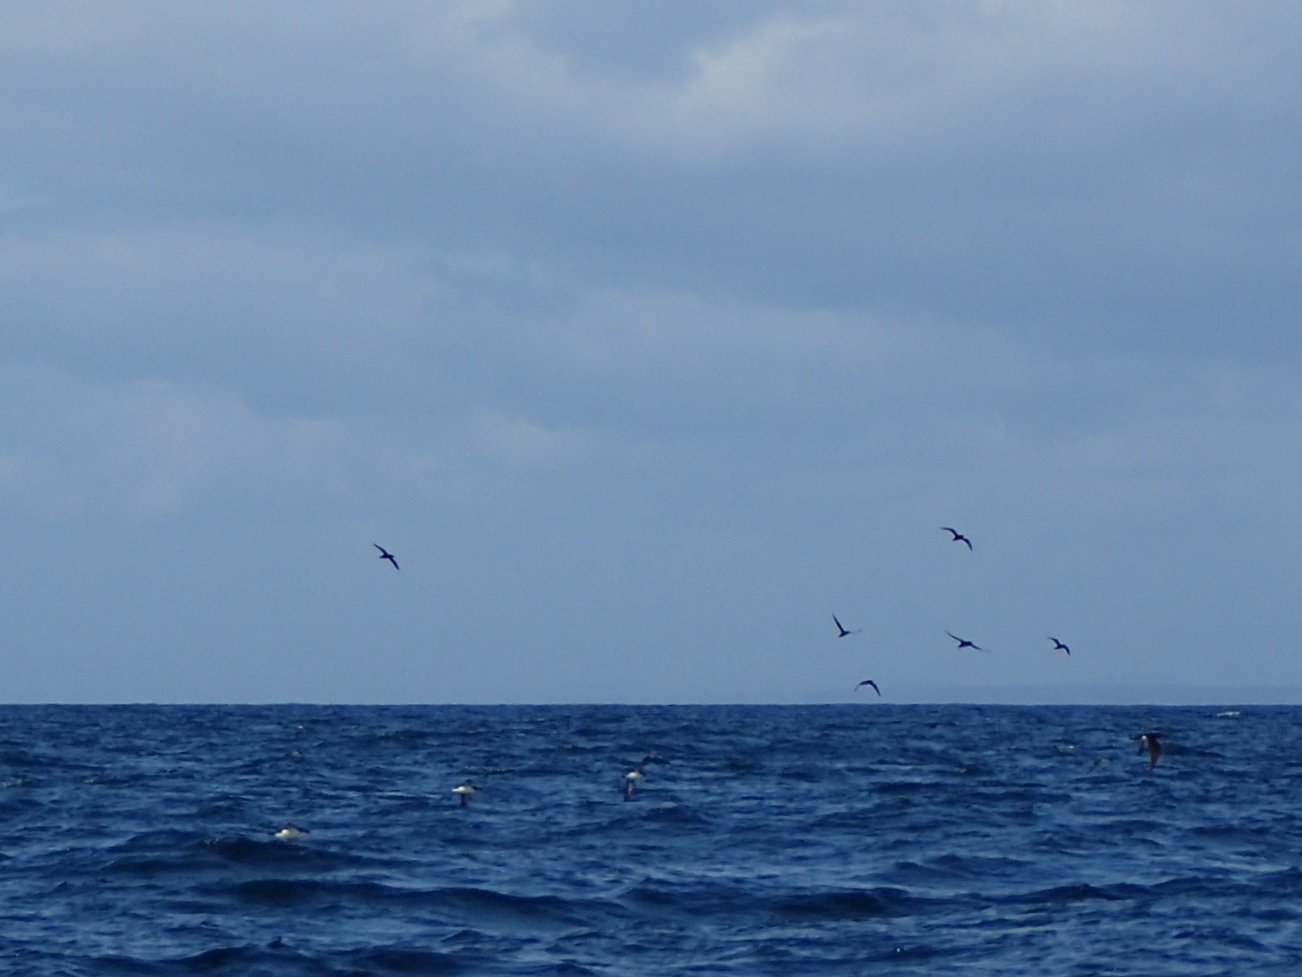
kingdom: Animalia
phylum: Chordata
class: Aves
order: Procellariiformes
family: Procellariidae
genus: Puffinus
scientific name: Puffinus puffinus
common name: Manx shearwater
